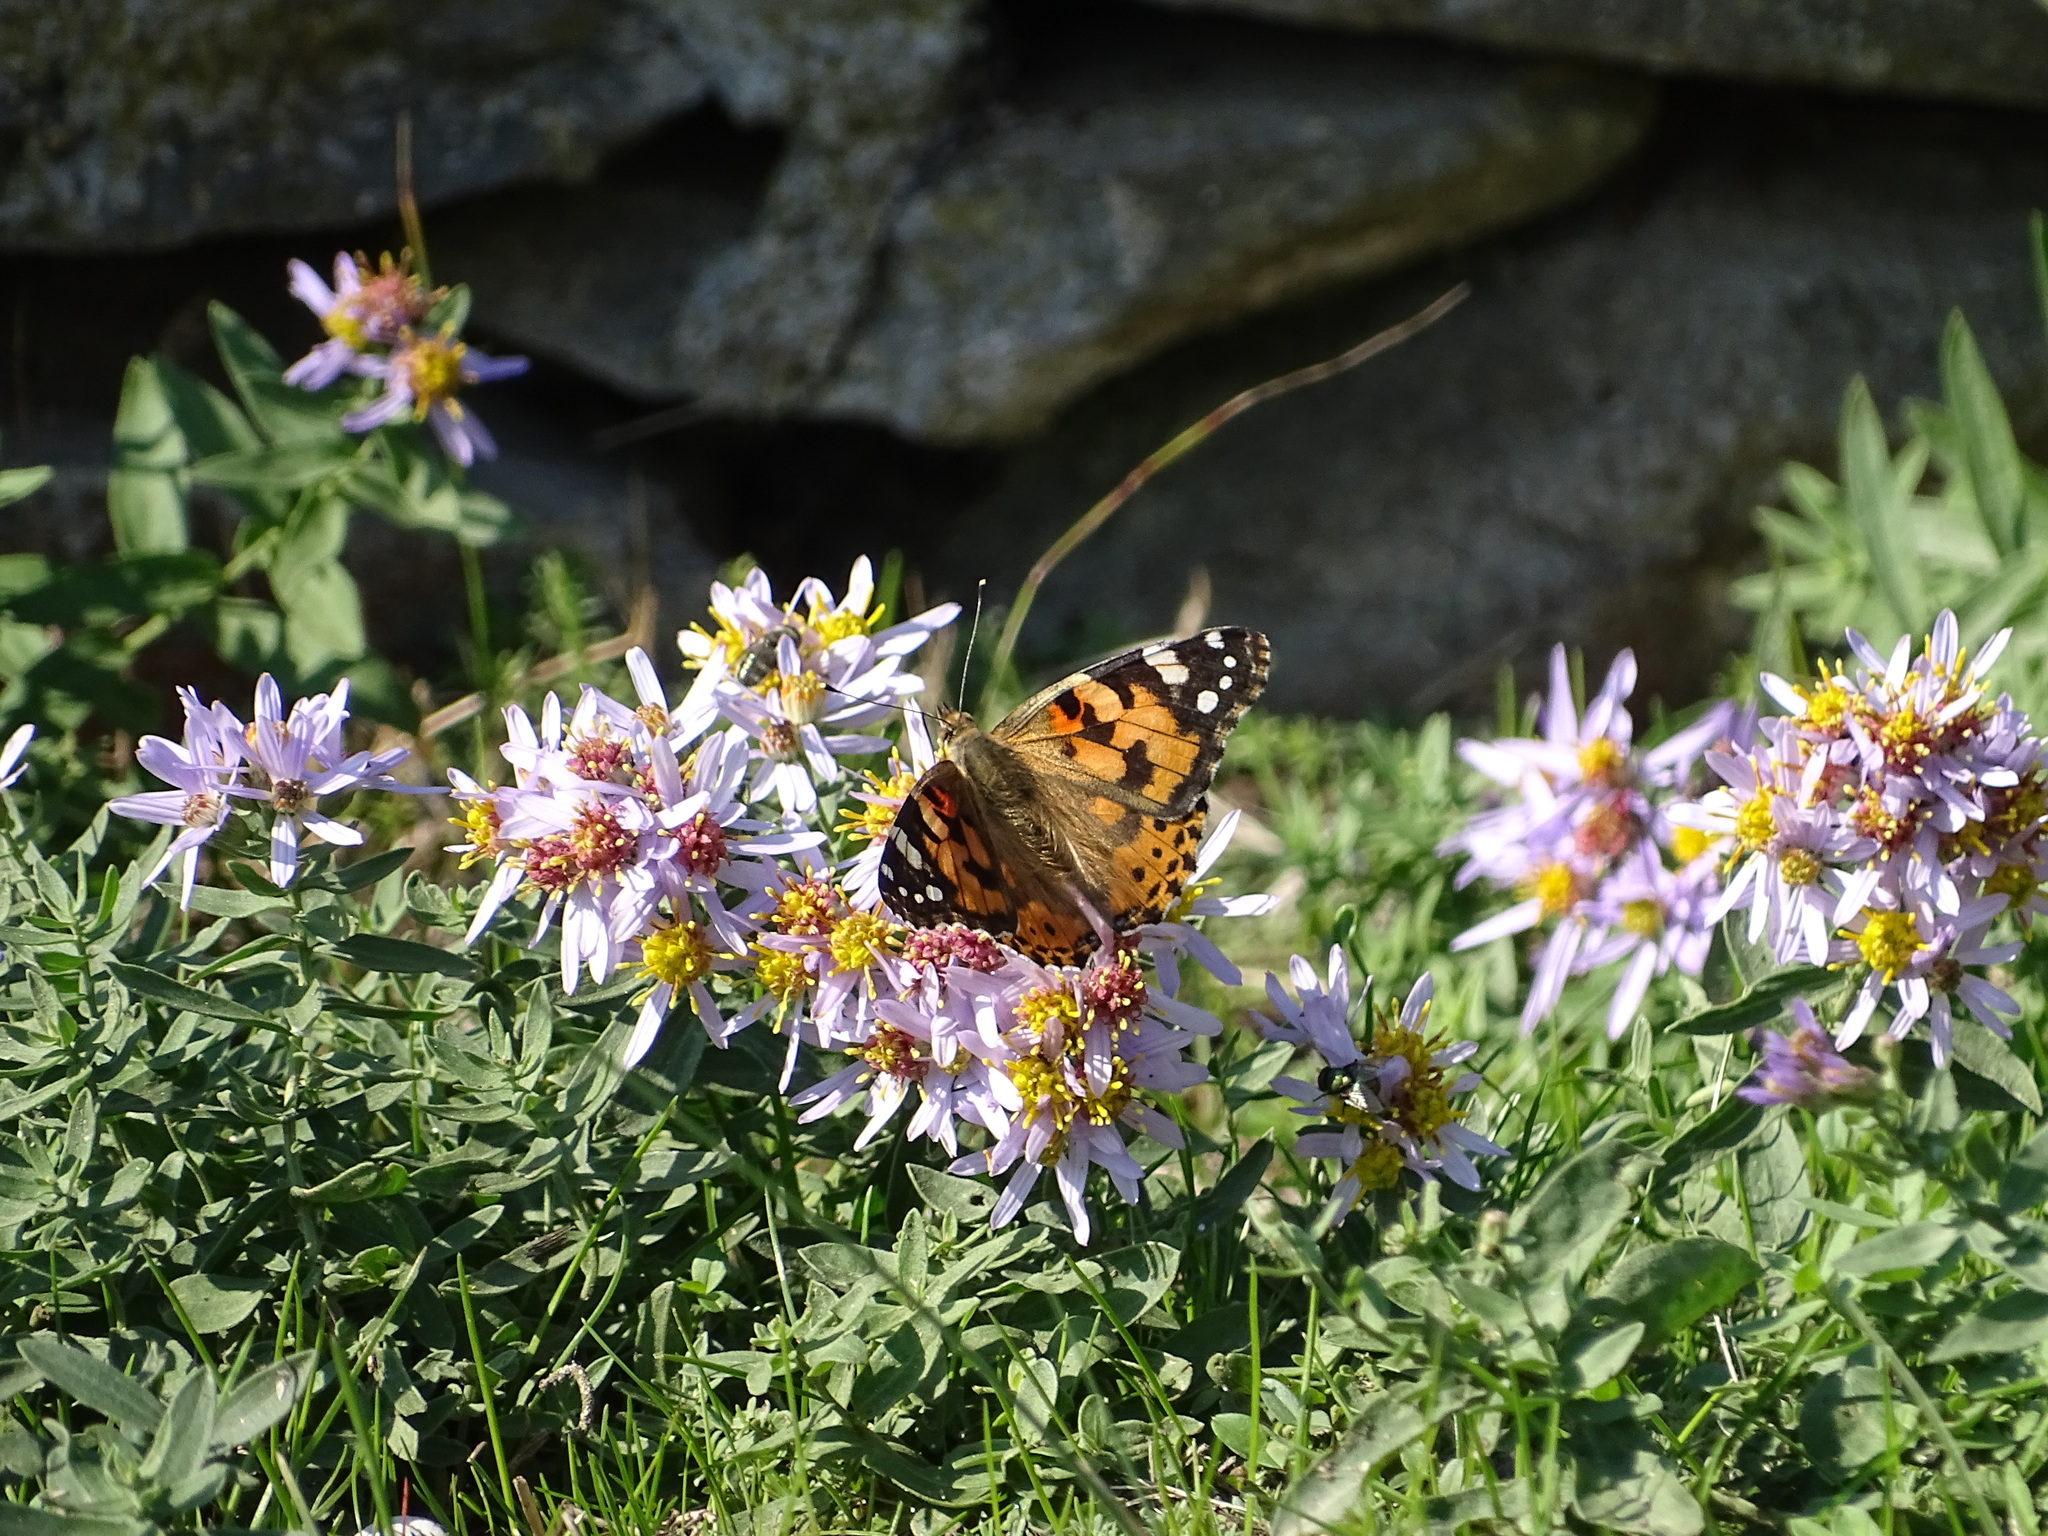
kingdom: Animalia
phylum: Arthropoda
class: Insecta
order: Lepidoptera
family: Nymphalidae
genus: Vanessa
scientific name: Vanessa cardui
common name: Painted lady
